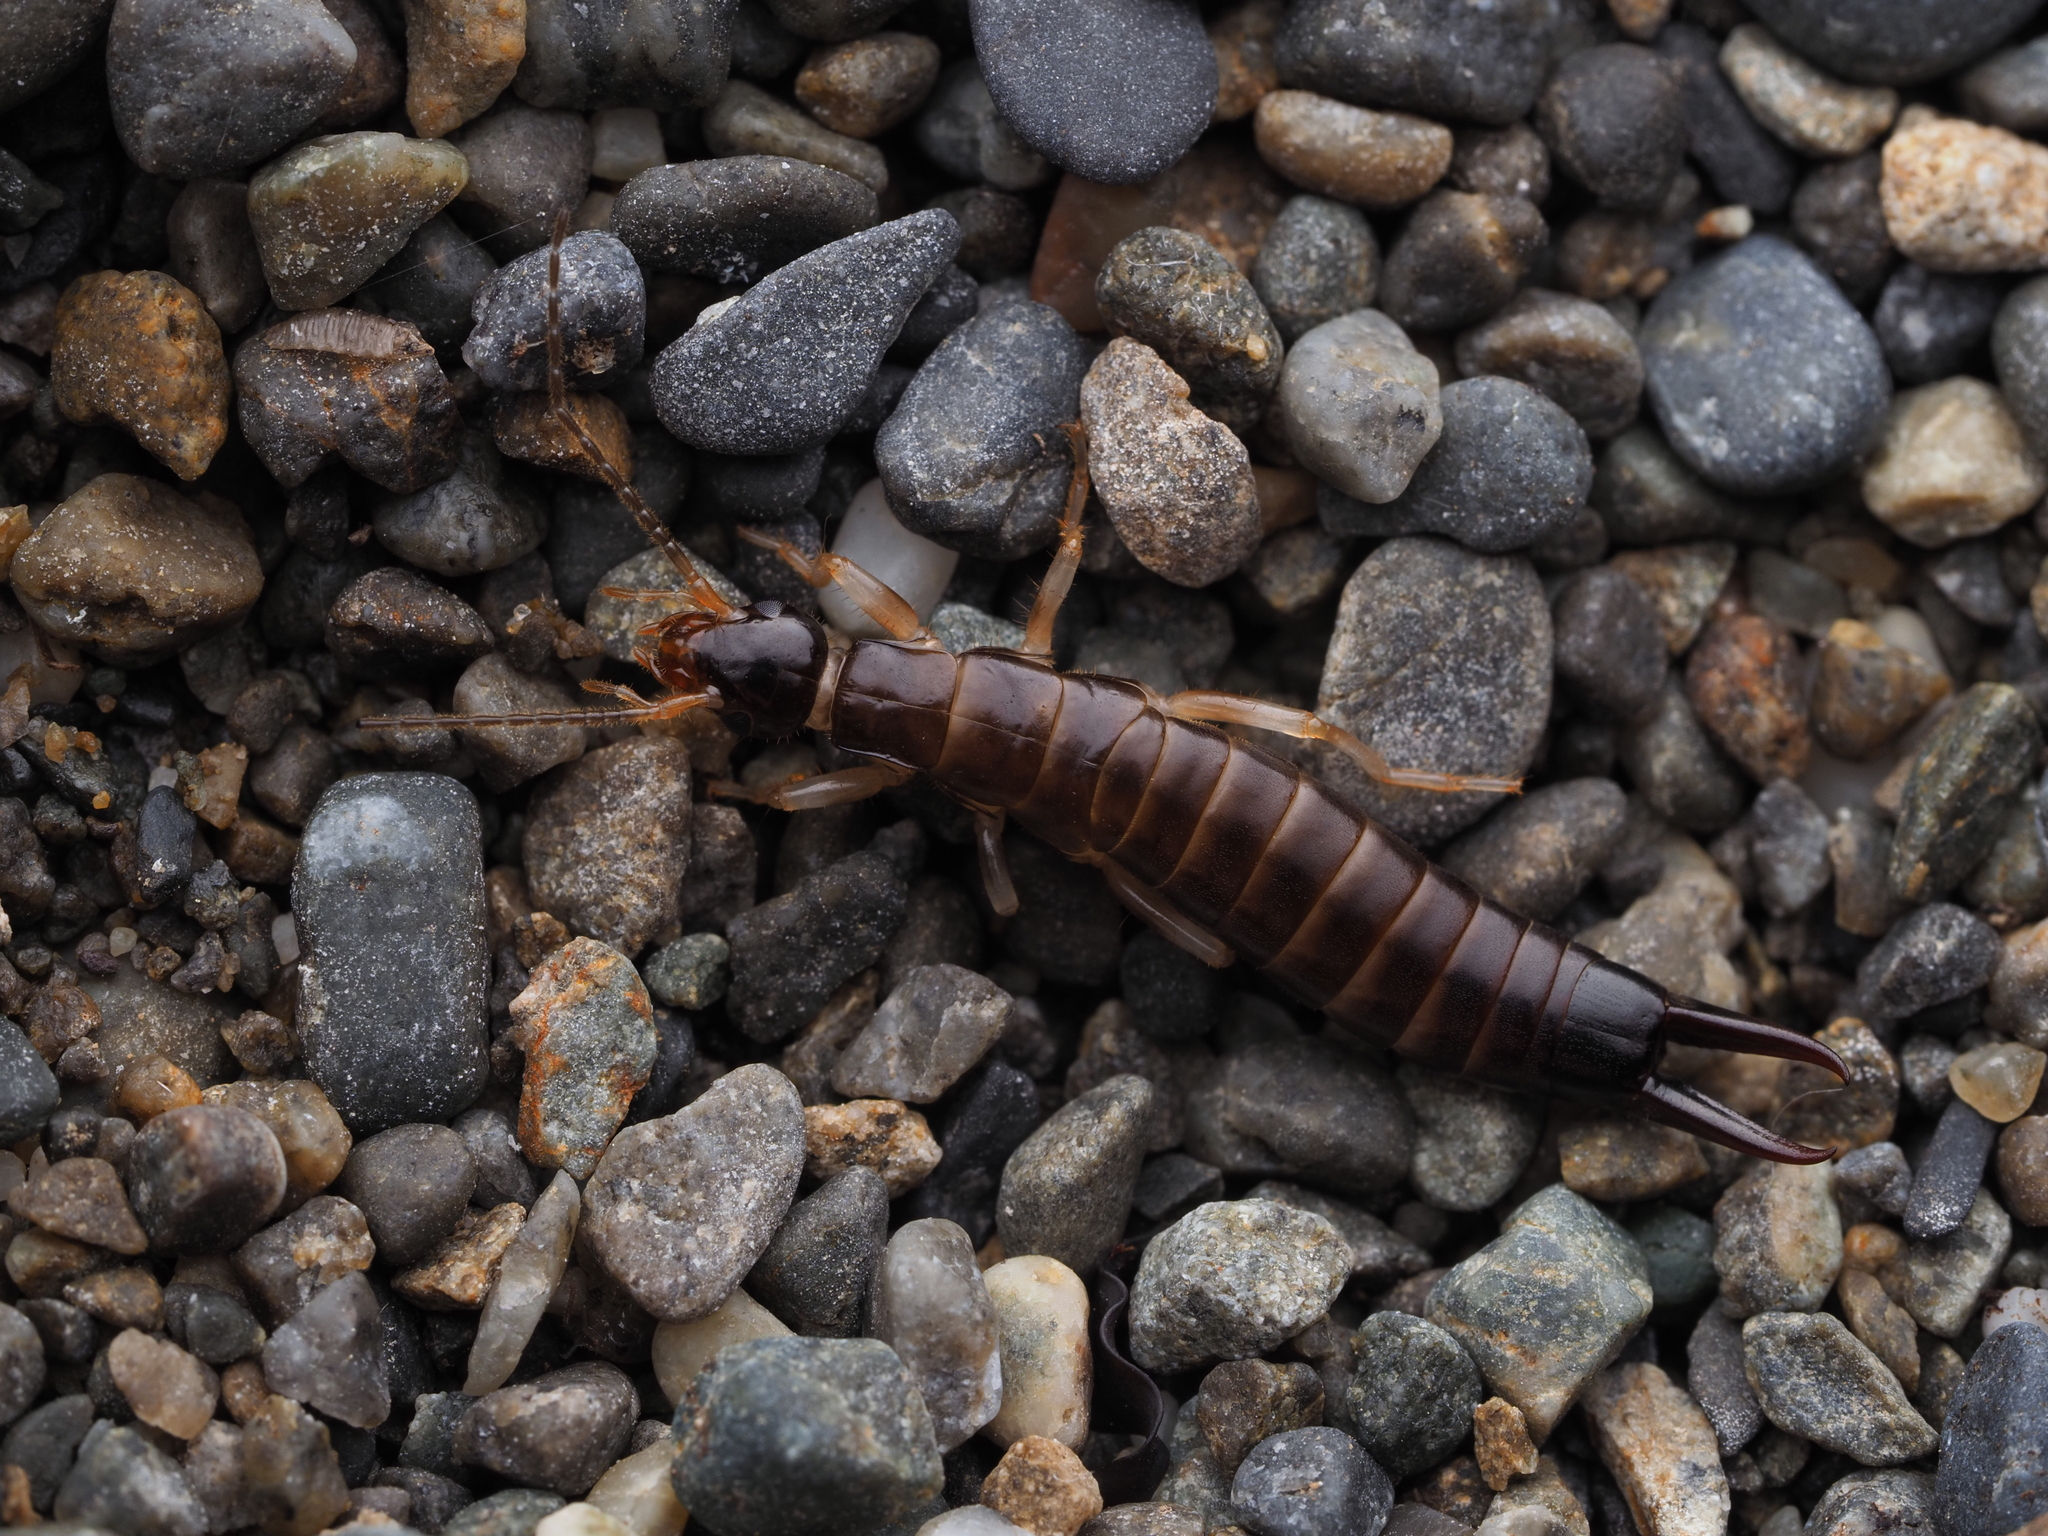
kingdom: Animalia
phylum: Arthropoda
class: Insecta
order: Dermaptera
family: Anisolabididae
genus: Anisolabis
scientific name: Anisolabis littorea
